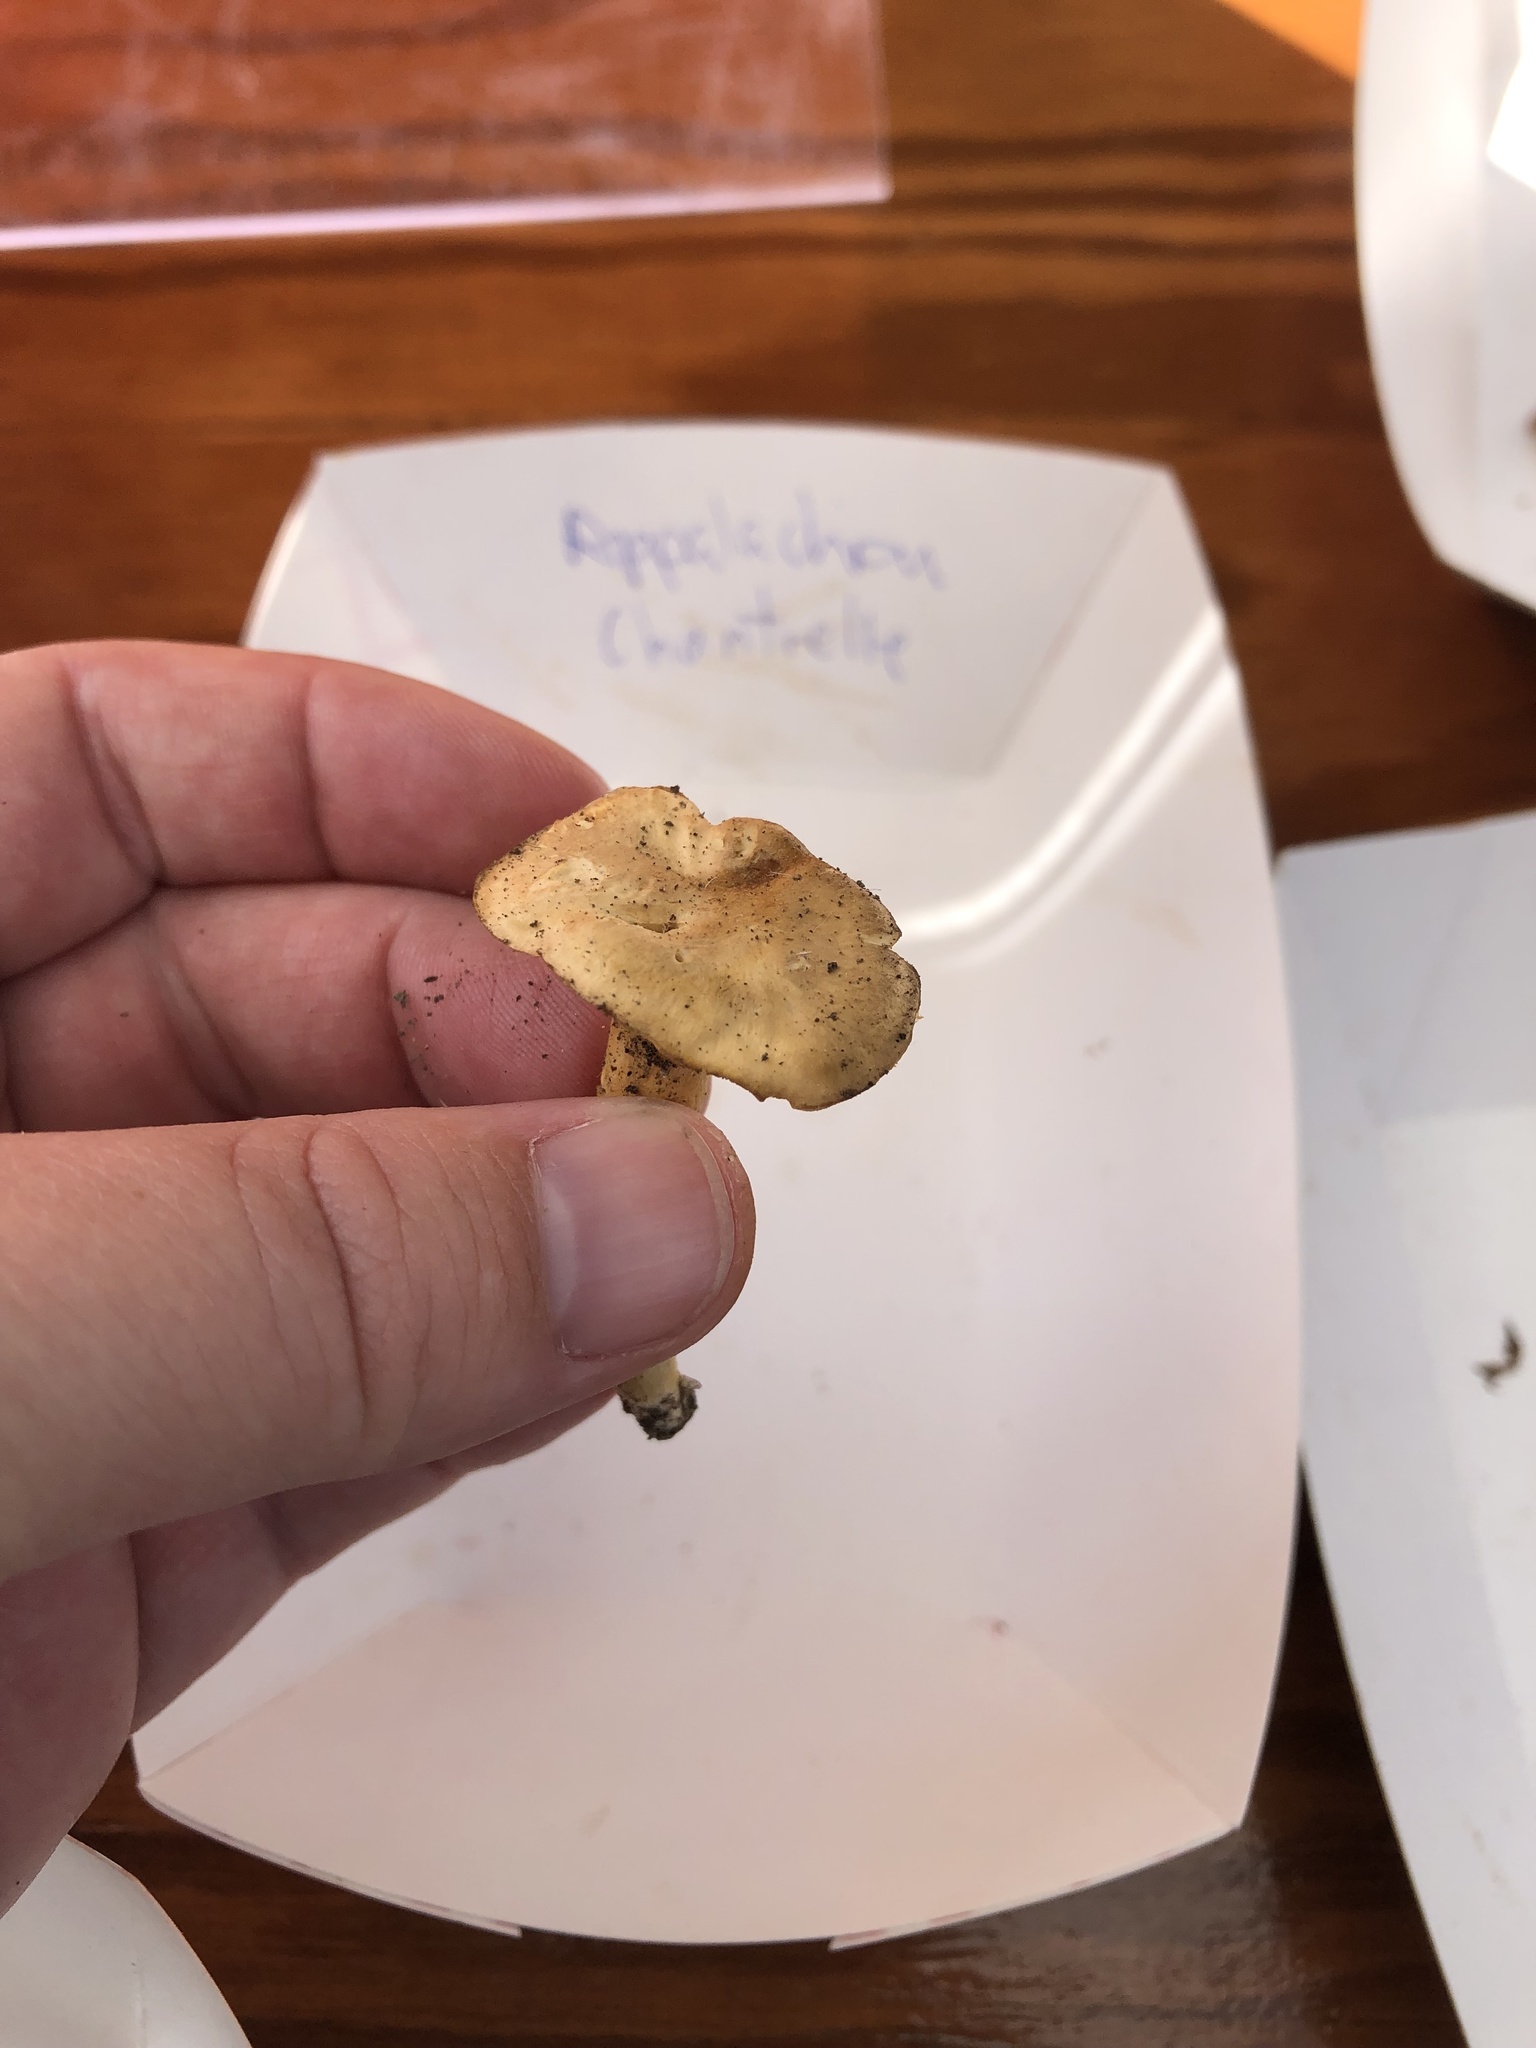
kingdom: Fungi
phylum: Basidiomycota
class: Agaricomycetes
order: Cantharellales
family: Hydnaceae
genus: Cantharellus
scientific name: Cantharellus appalachiensis
